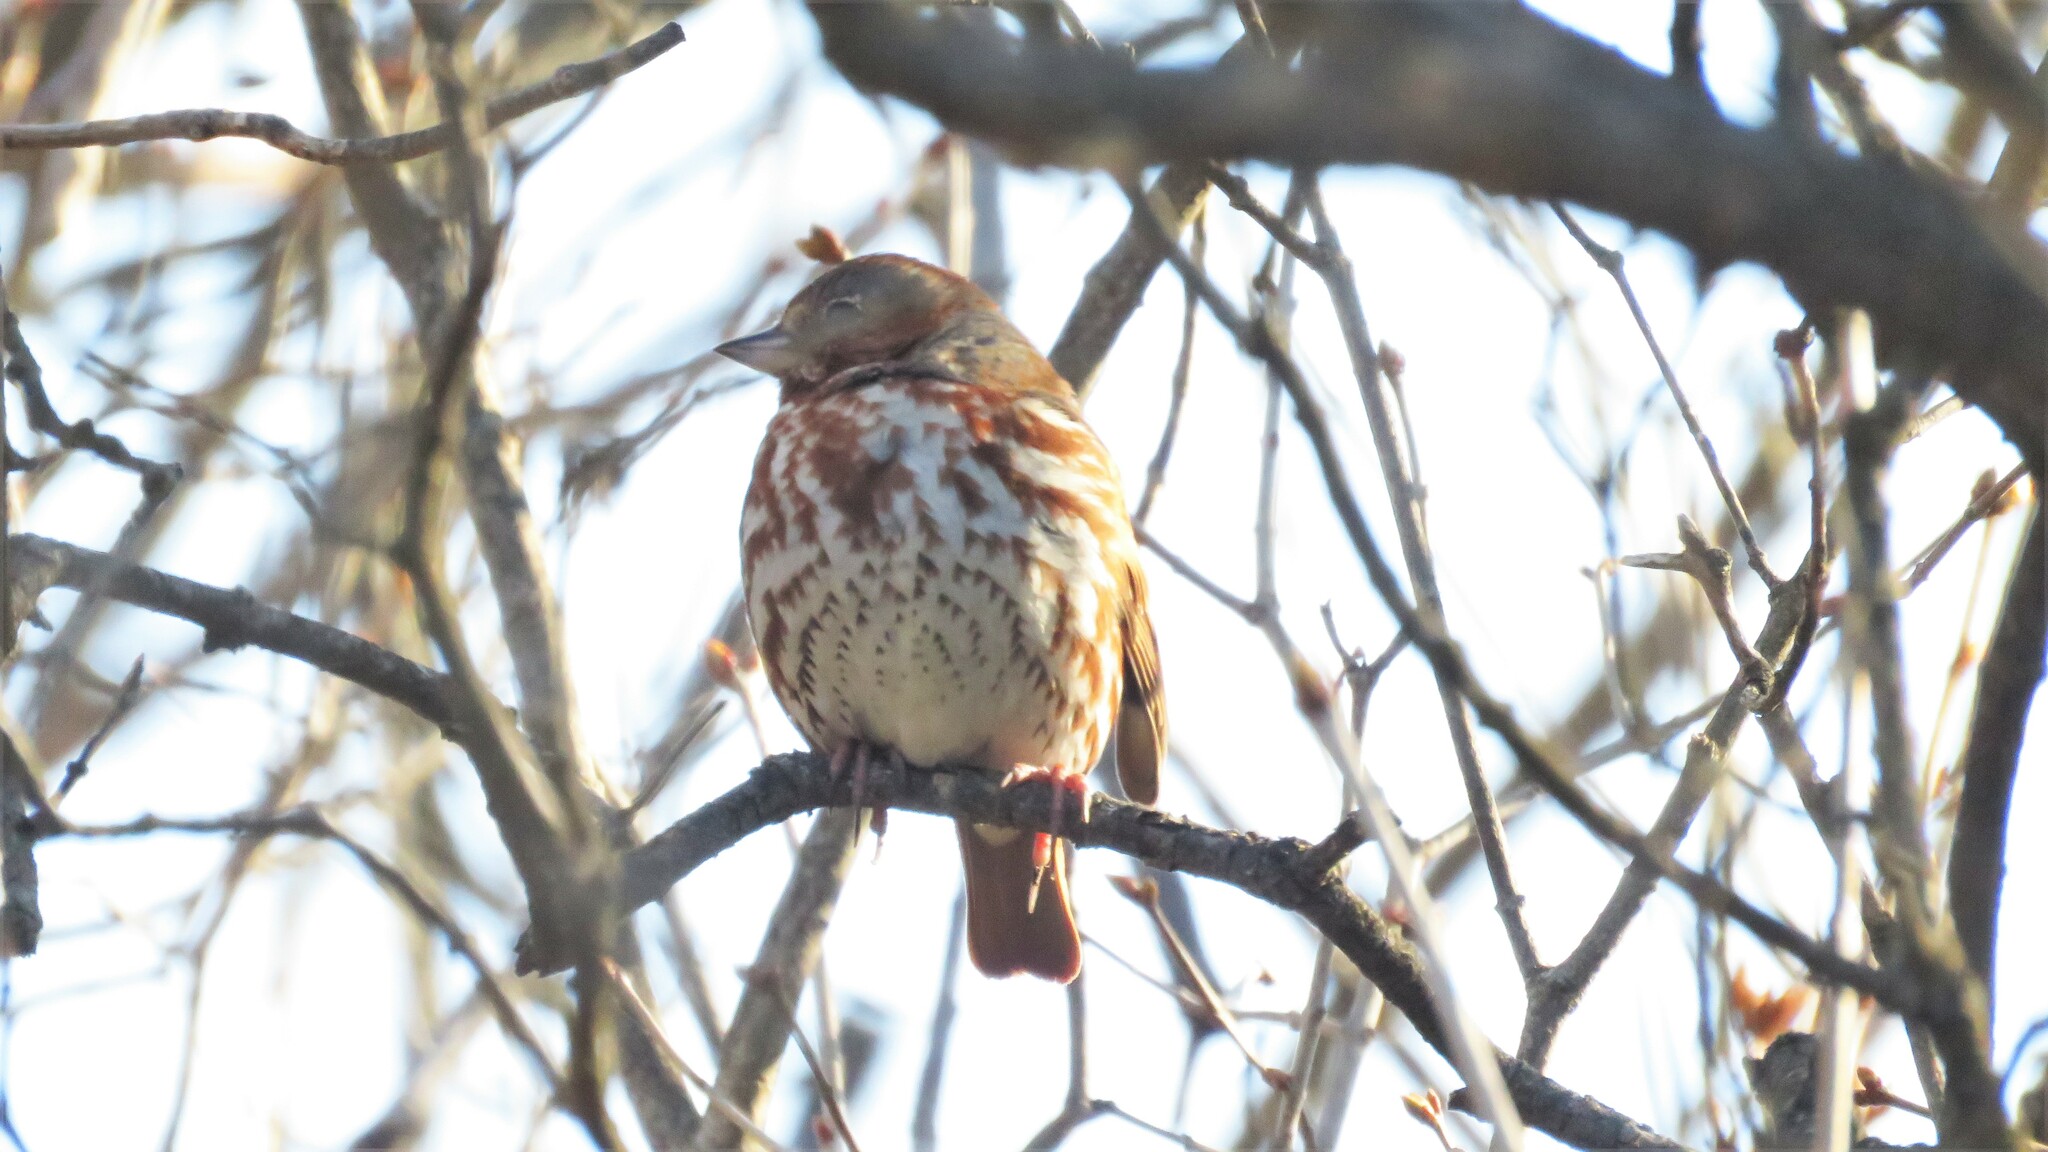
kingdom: Animalia
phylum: Chordata
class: Aves
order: Passeriformes
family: Passerellidae
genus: Passerella
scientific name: Passerella iliaca
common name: Fox sparrow
